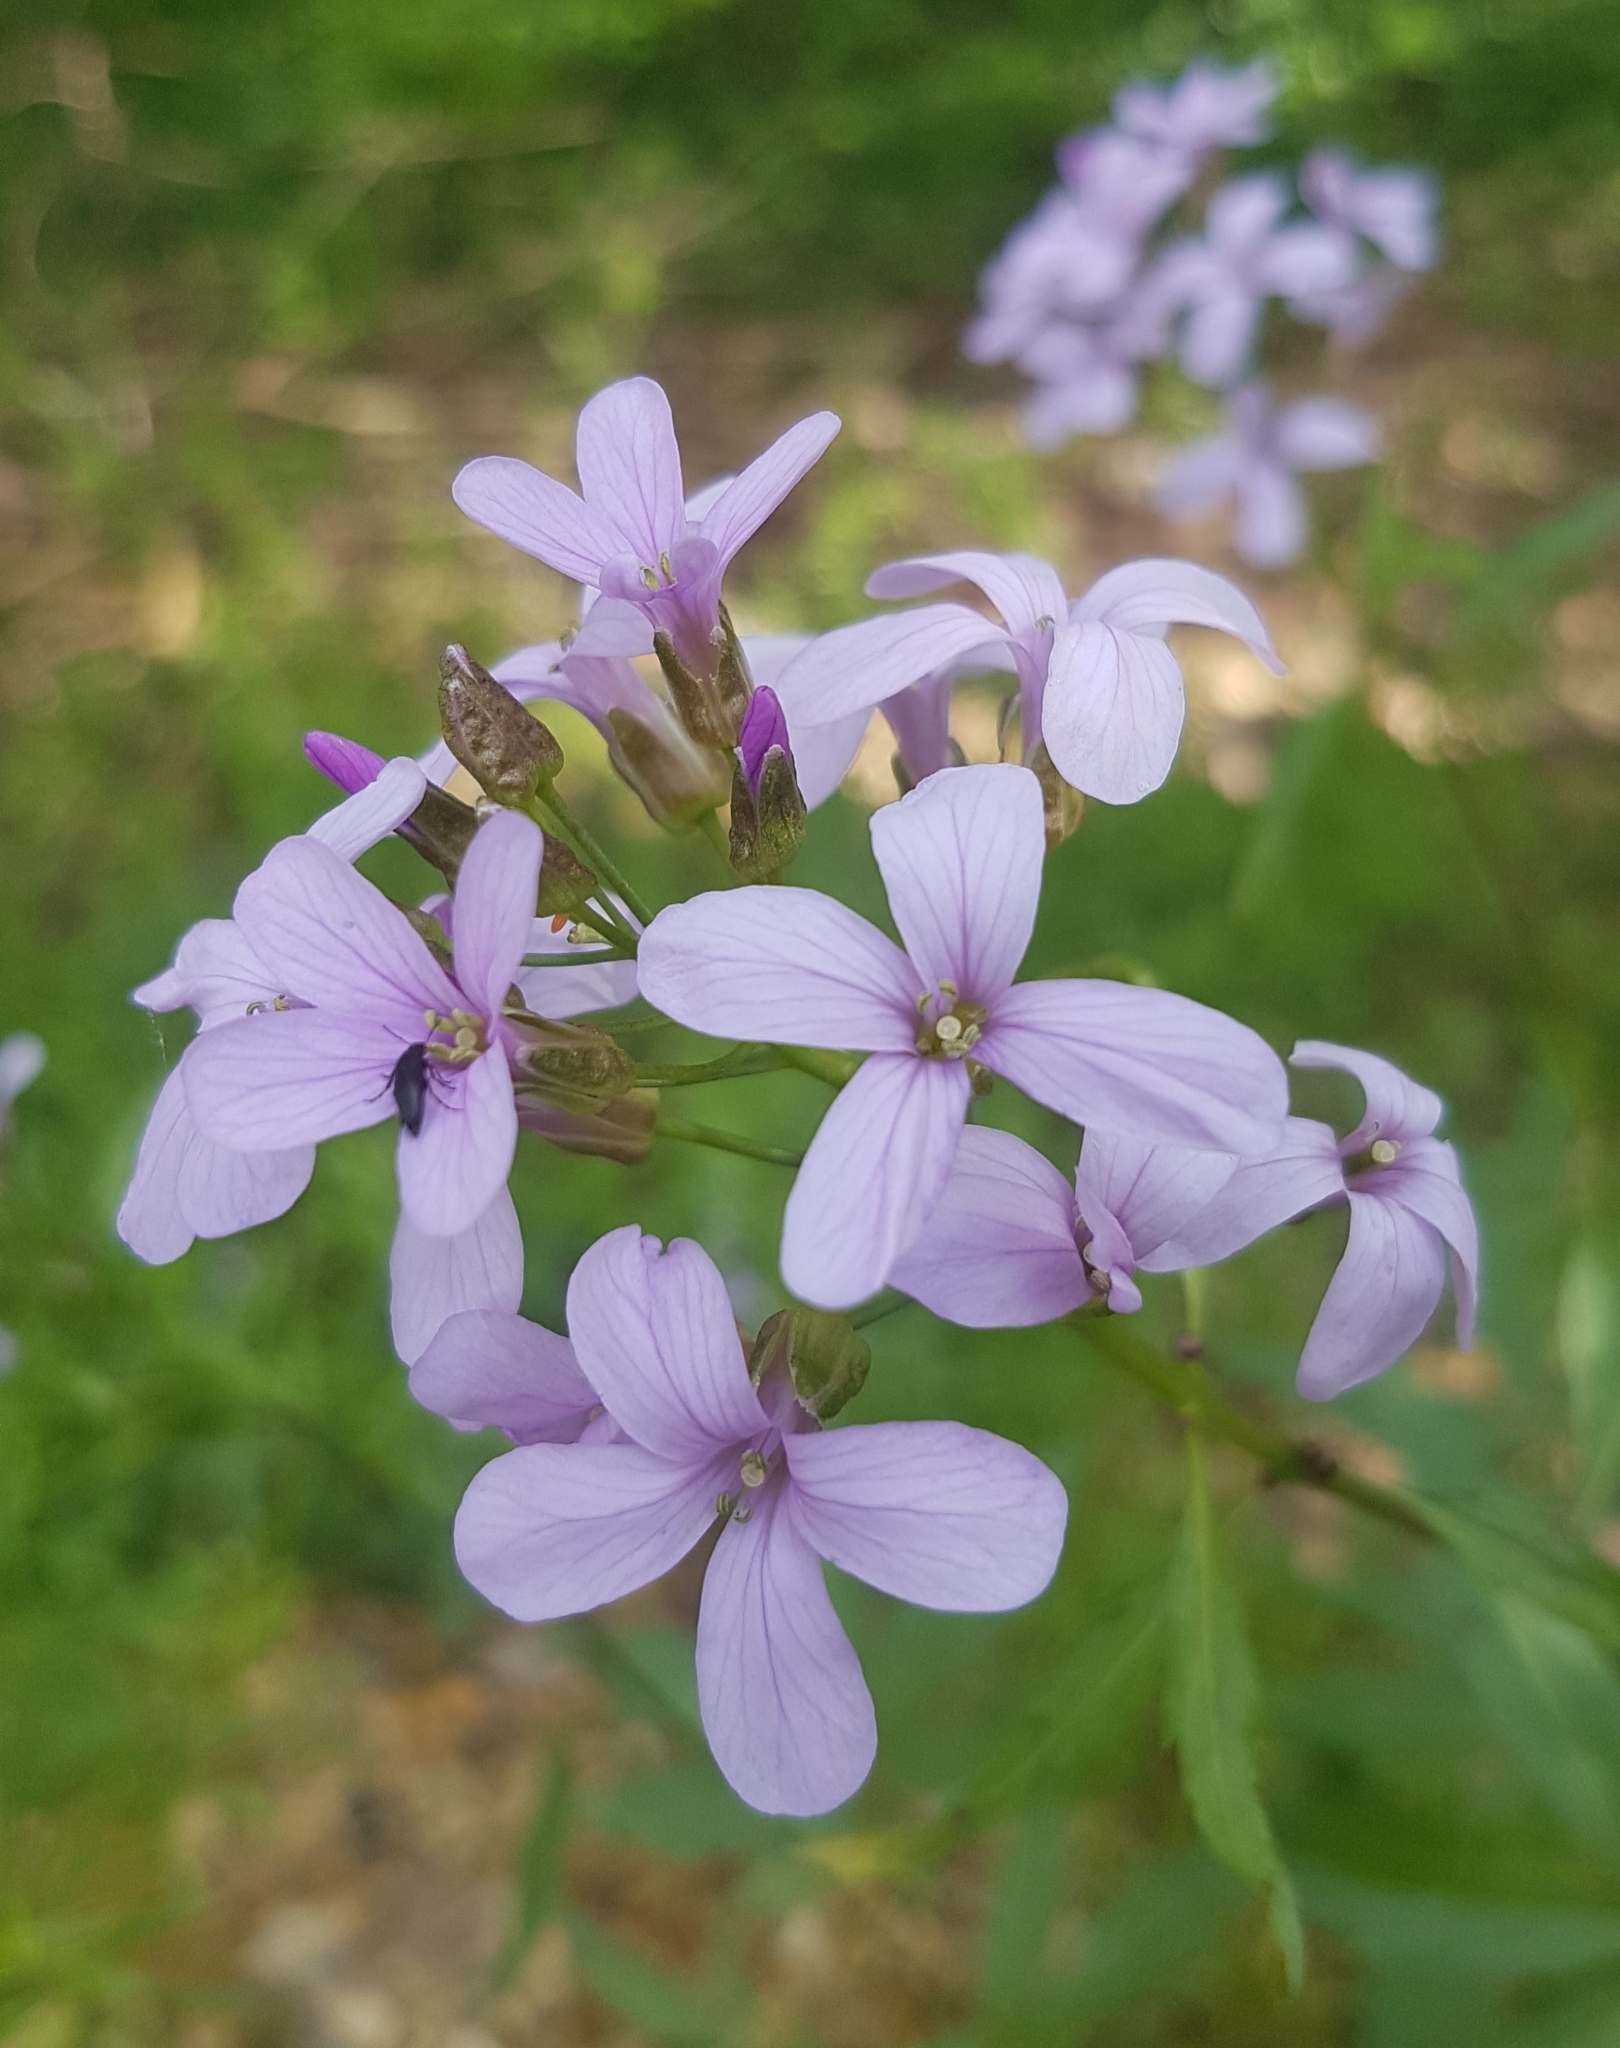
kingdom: Plantae
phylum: Tracheophyta
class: Magnoliopsida
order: Brassicales
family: Brassicaceae
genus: Cardamine
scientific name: Cardamine bulbifera
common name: Coralroot bittercress
